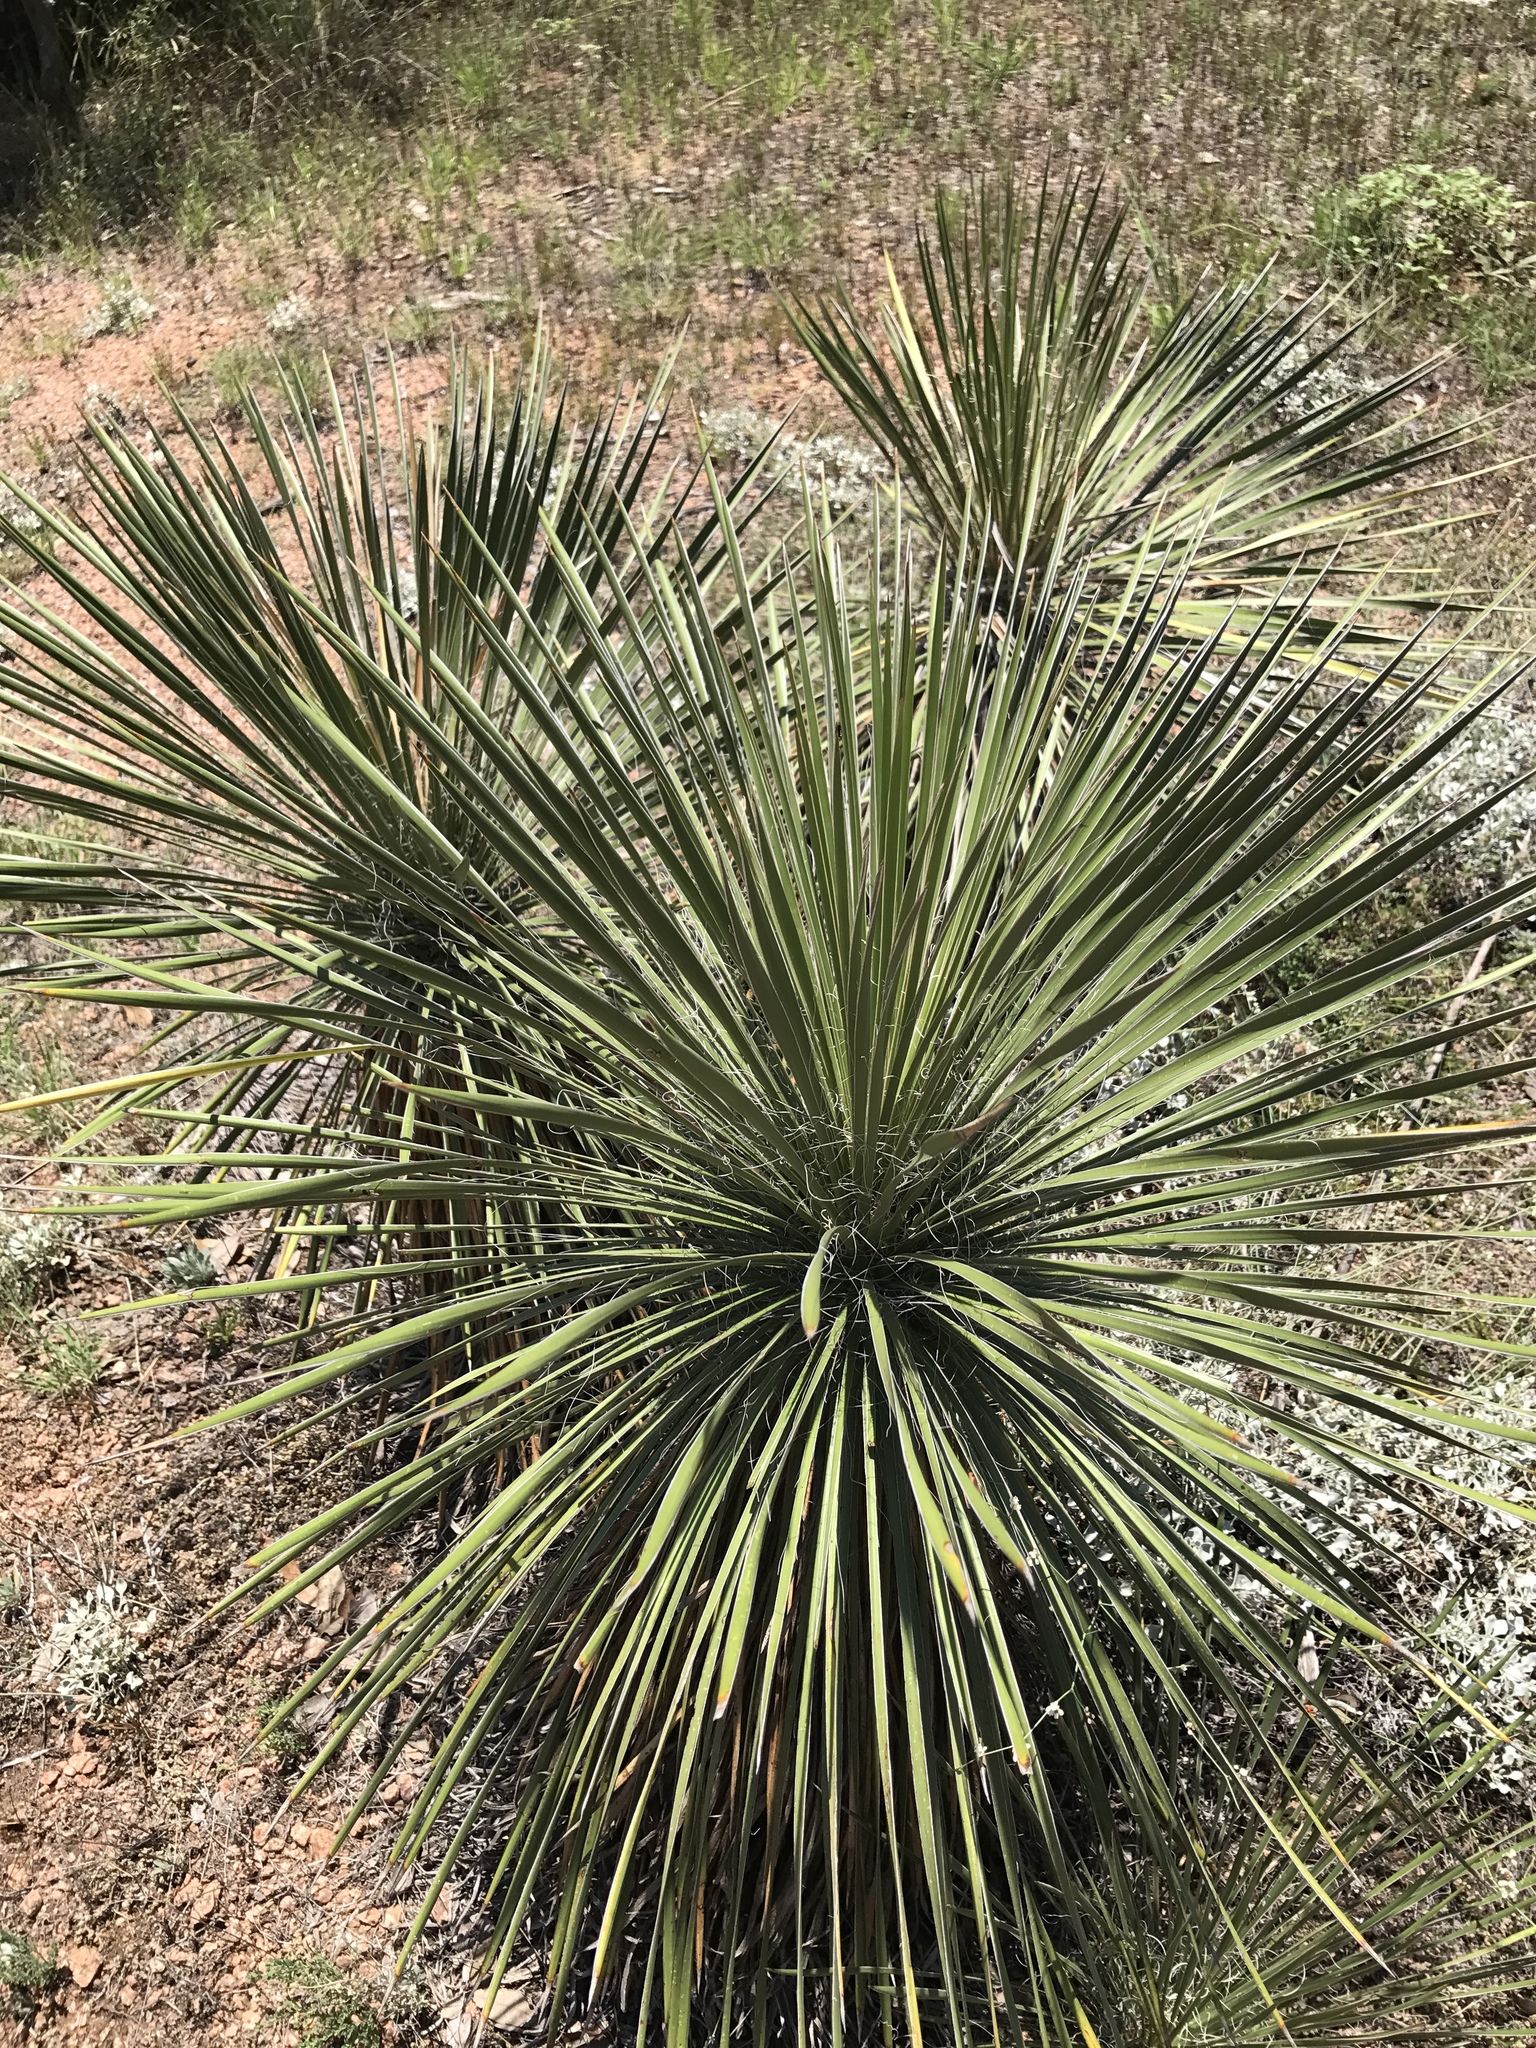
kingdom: Plantae
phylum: Tracheophyta
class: Liliopsida
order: Asparagales
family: Asparagaceae
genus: Yucca
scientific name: Yucca constricta
